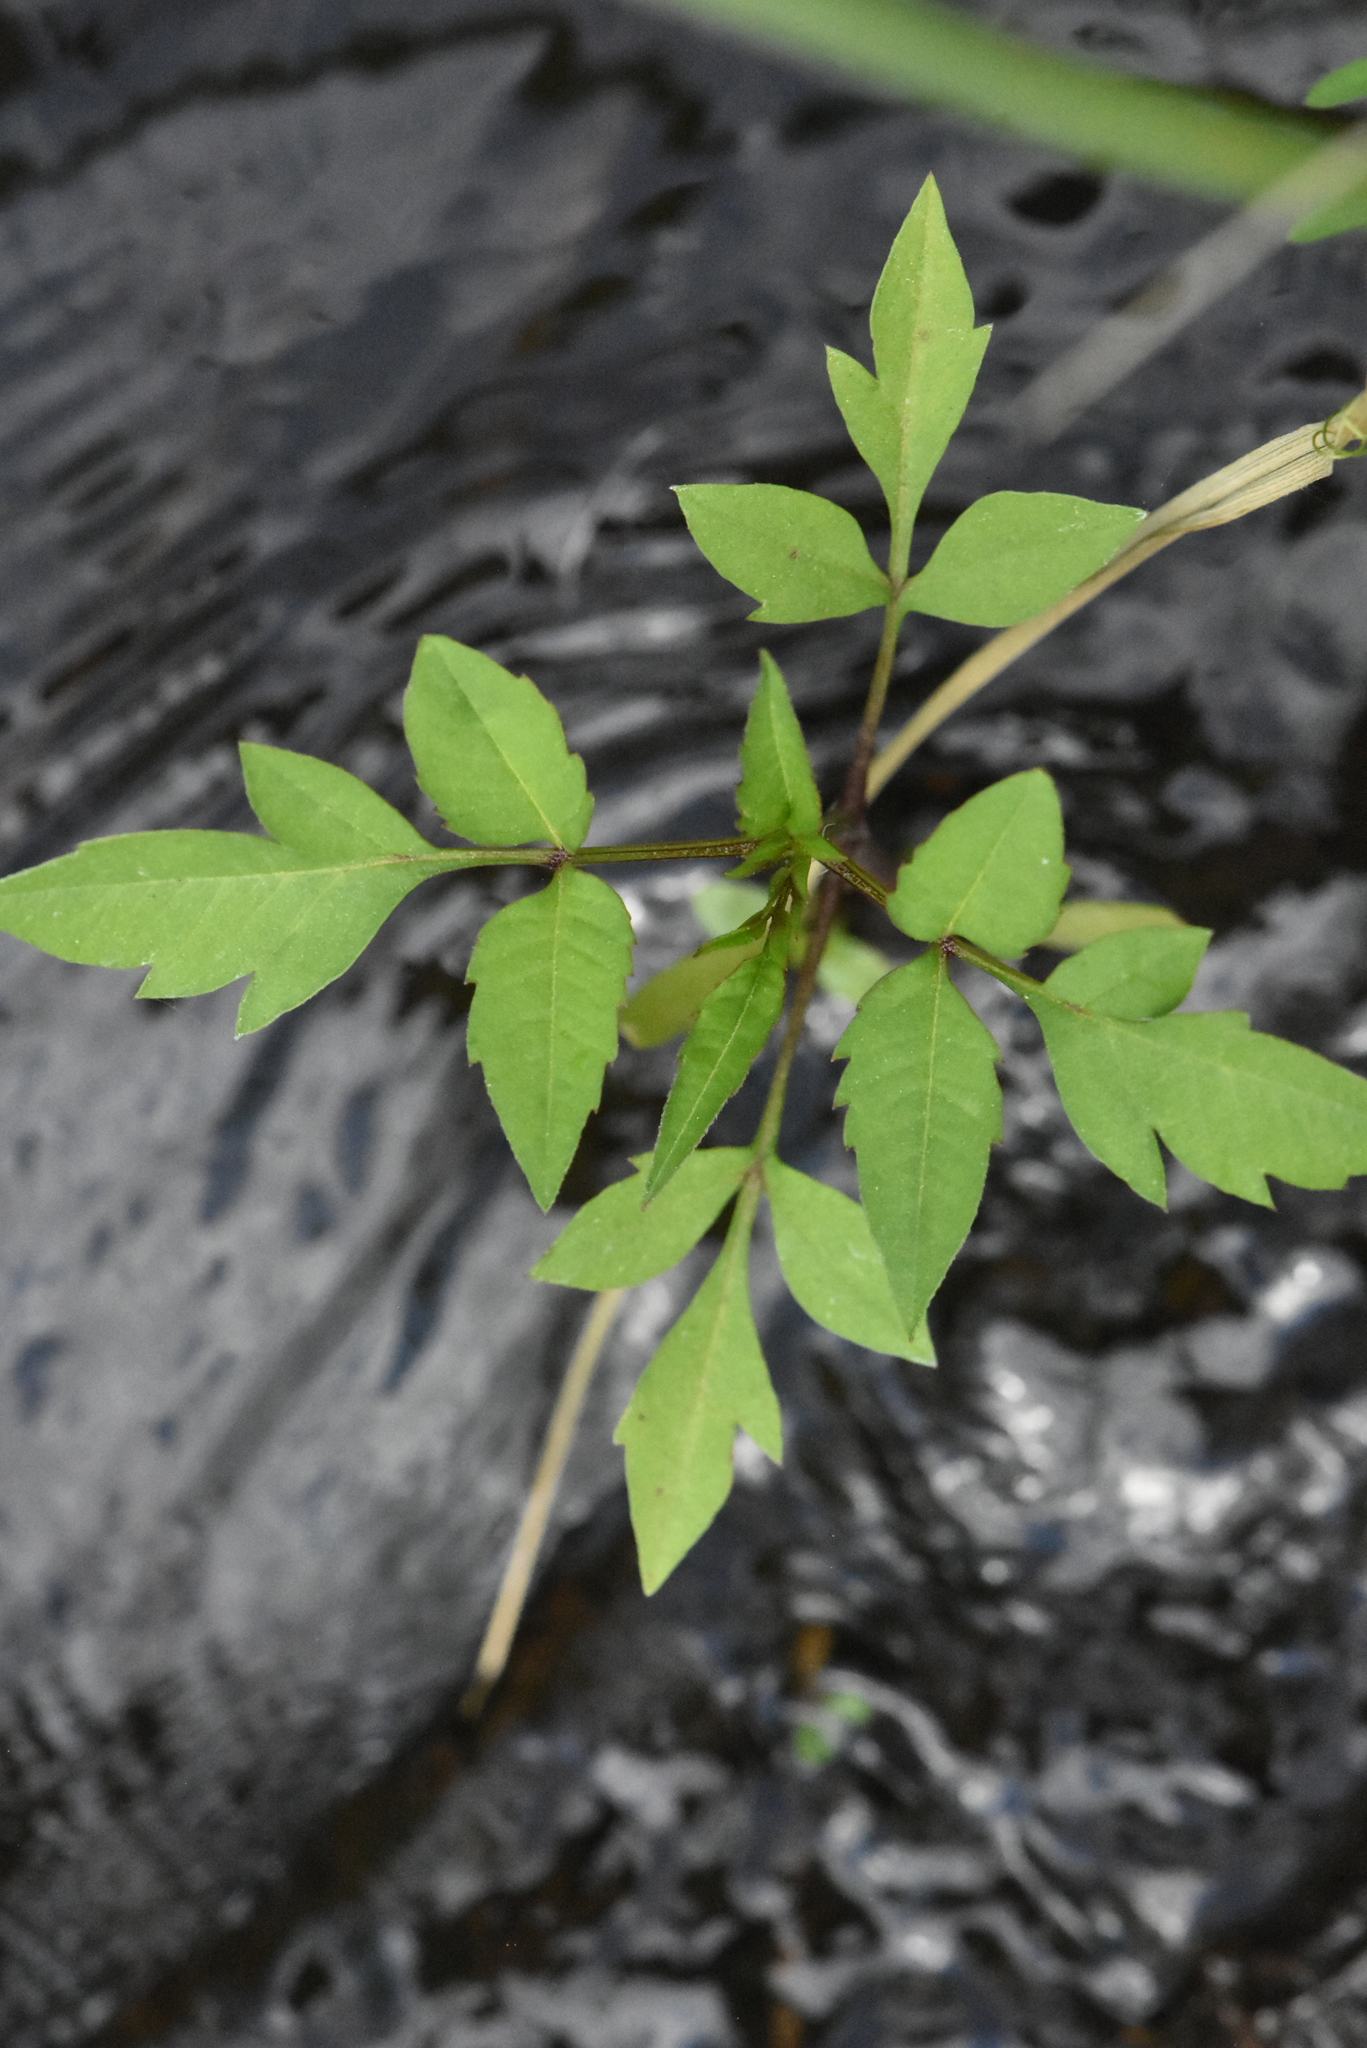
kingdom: Plantae
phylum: Tracheophyta
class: Magnoliopsida
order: Asterales
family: Asteraceae
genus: Bidens
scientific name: Bidens frondosa
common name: Beggarticks
